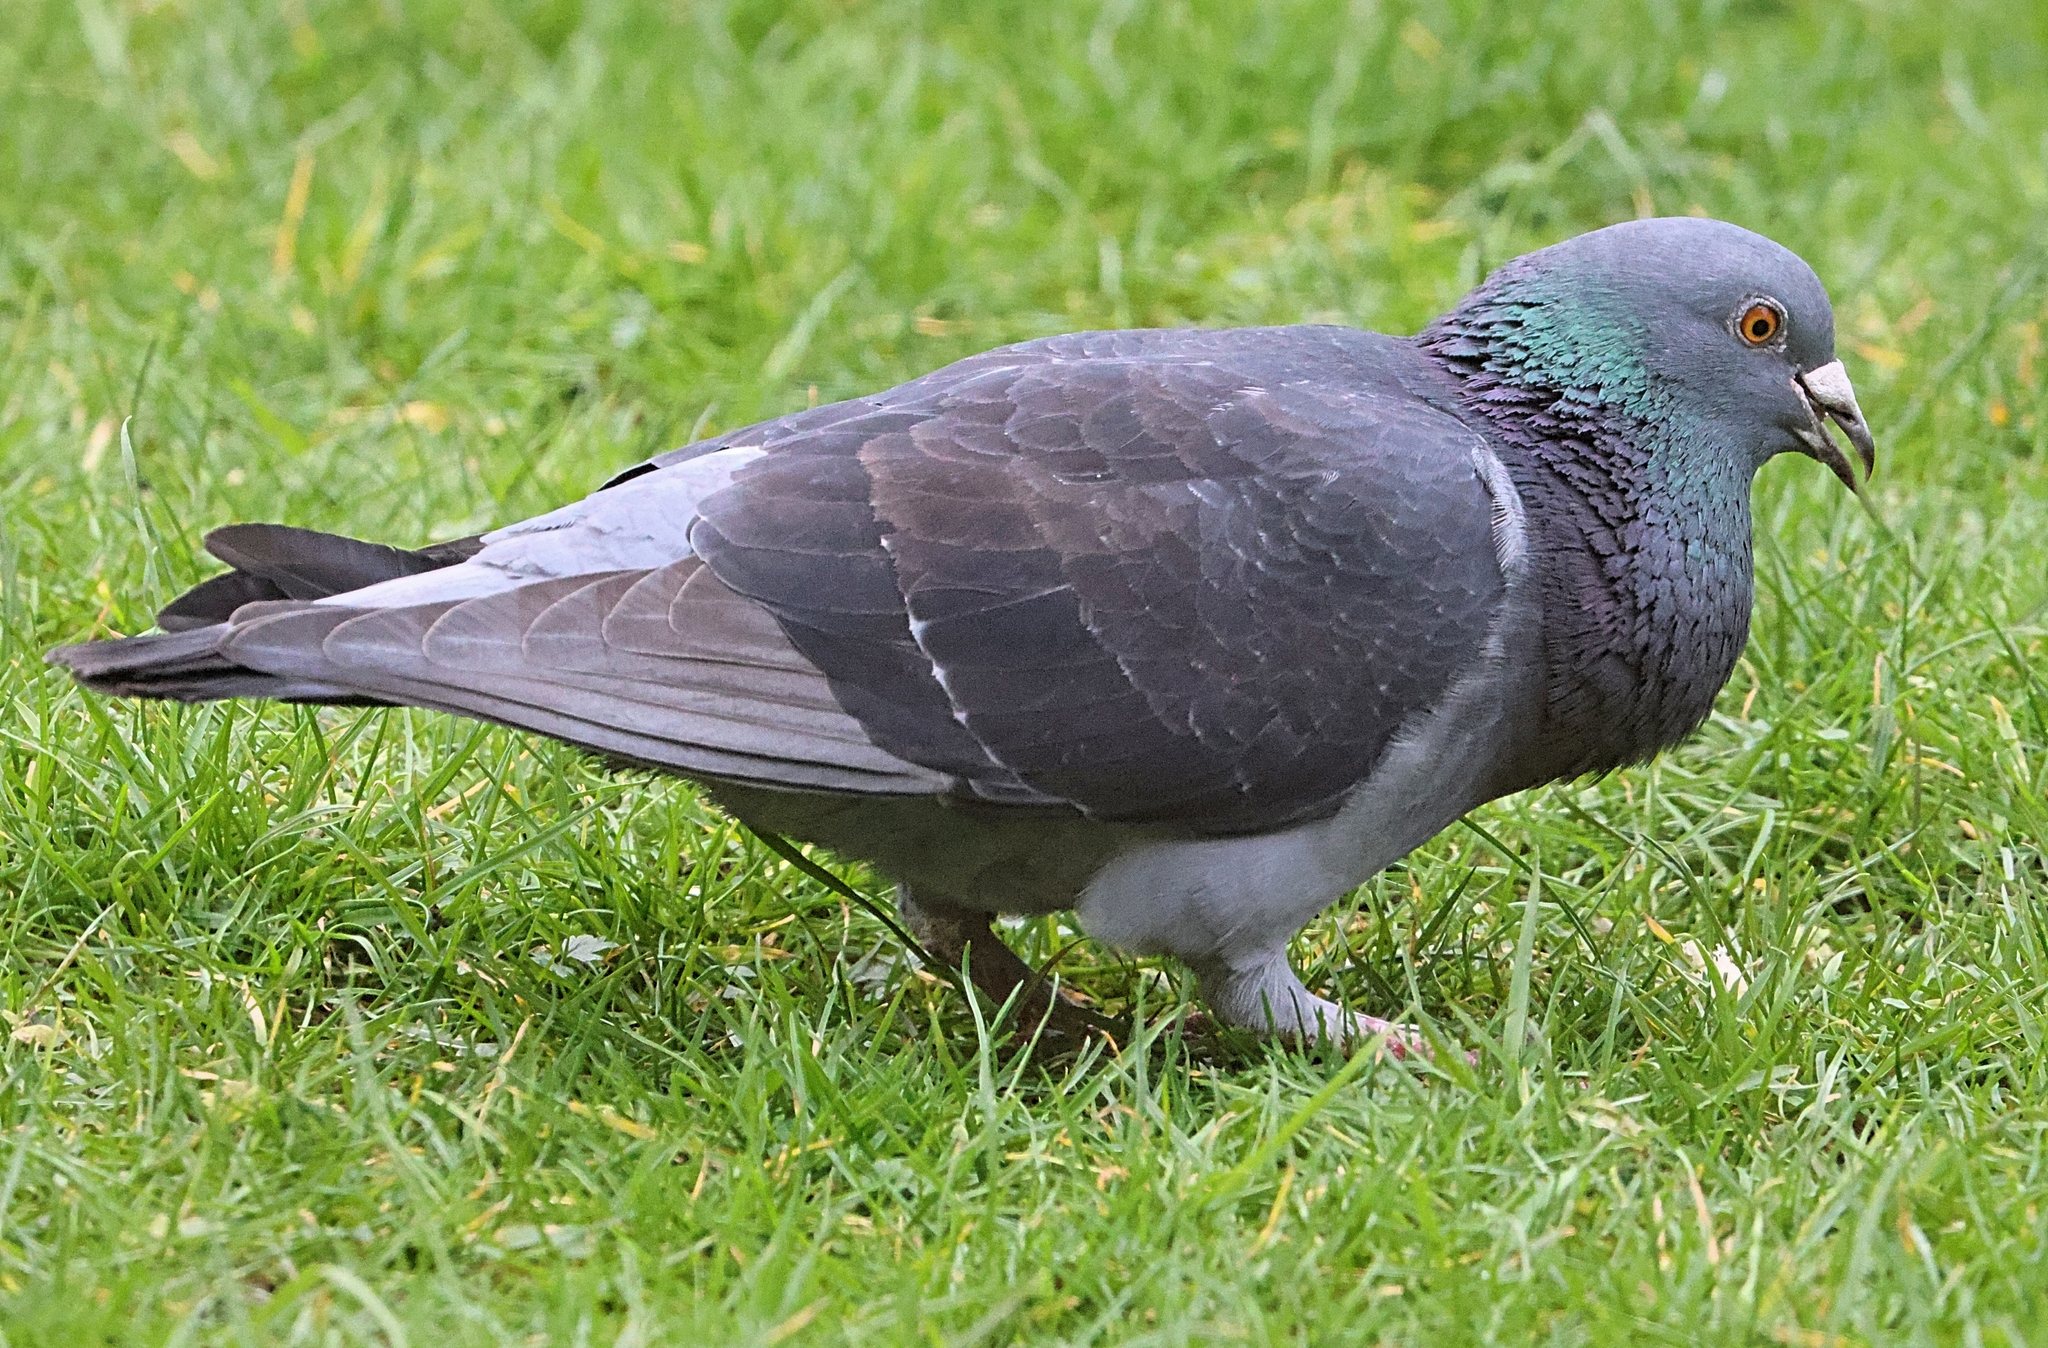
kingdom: Animalia
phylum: Chordata
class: Aves
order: Columbiformes
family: Columbidae
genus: Columba
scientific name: Columba livia
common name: Rock pigeon
